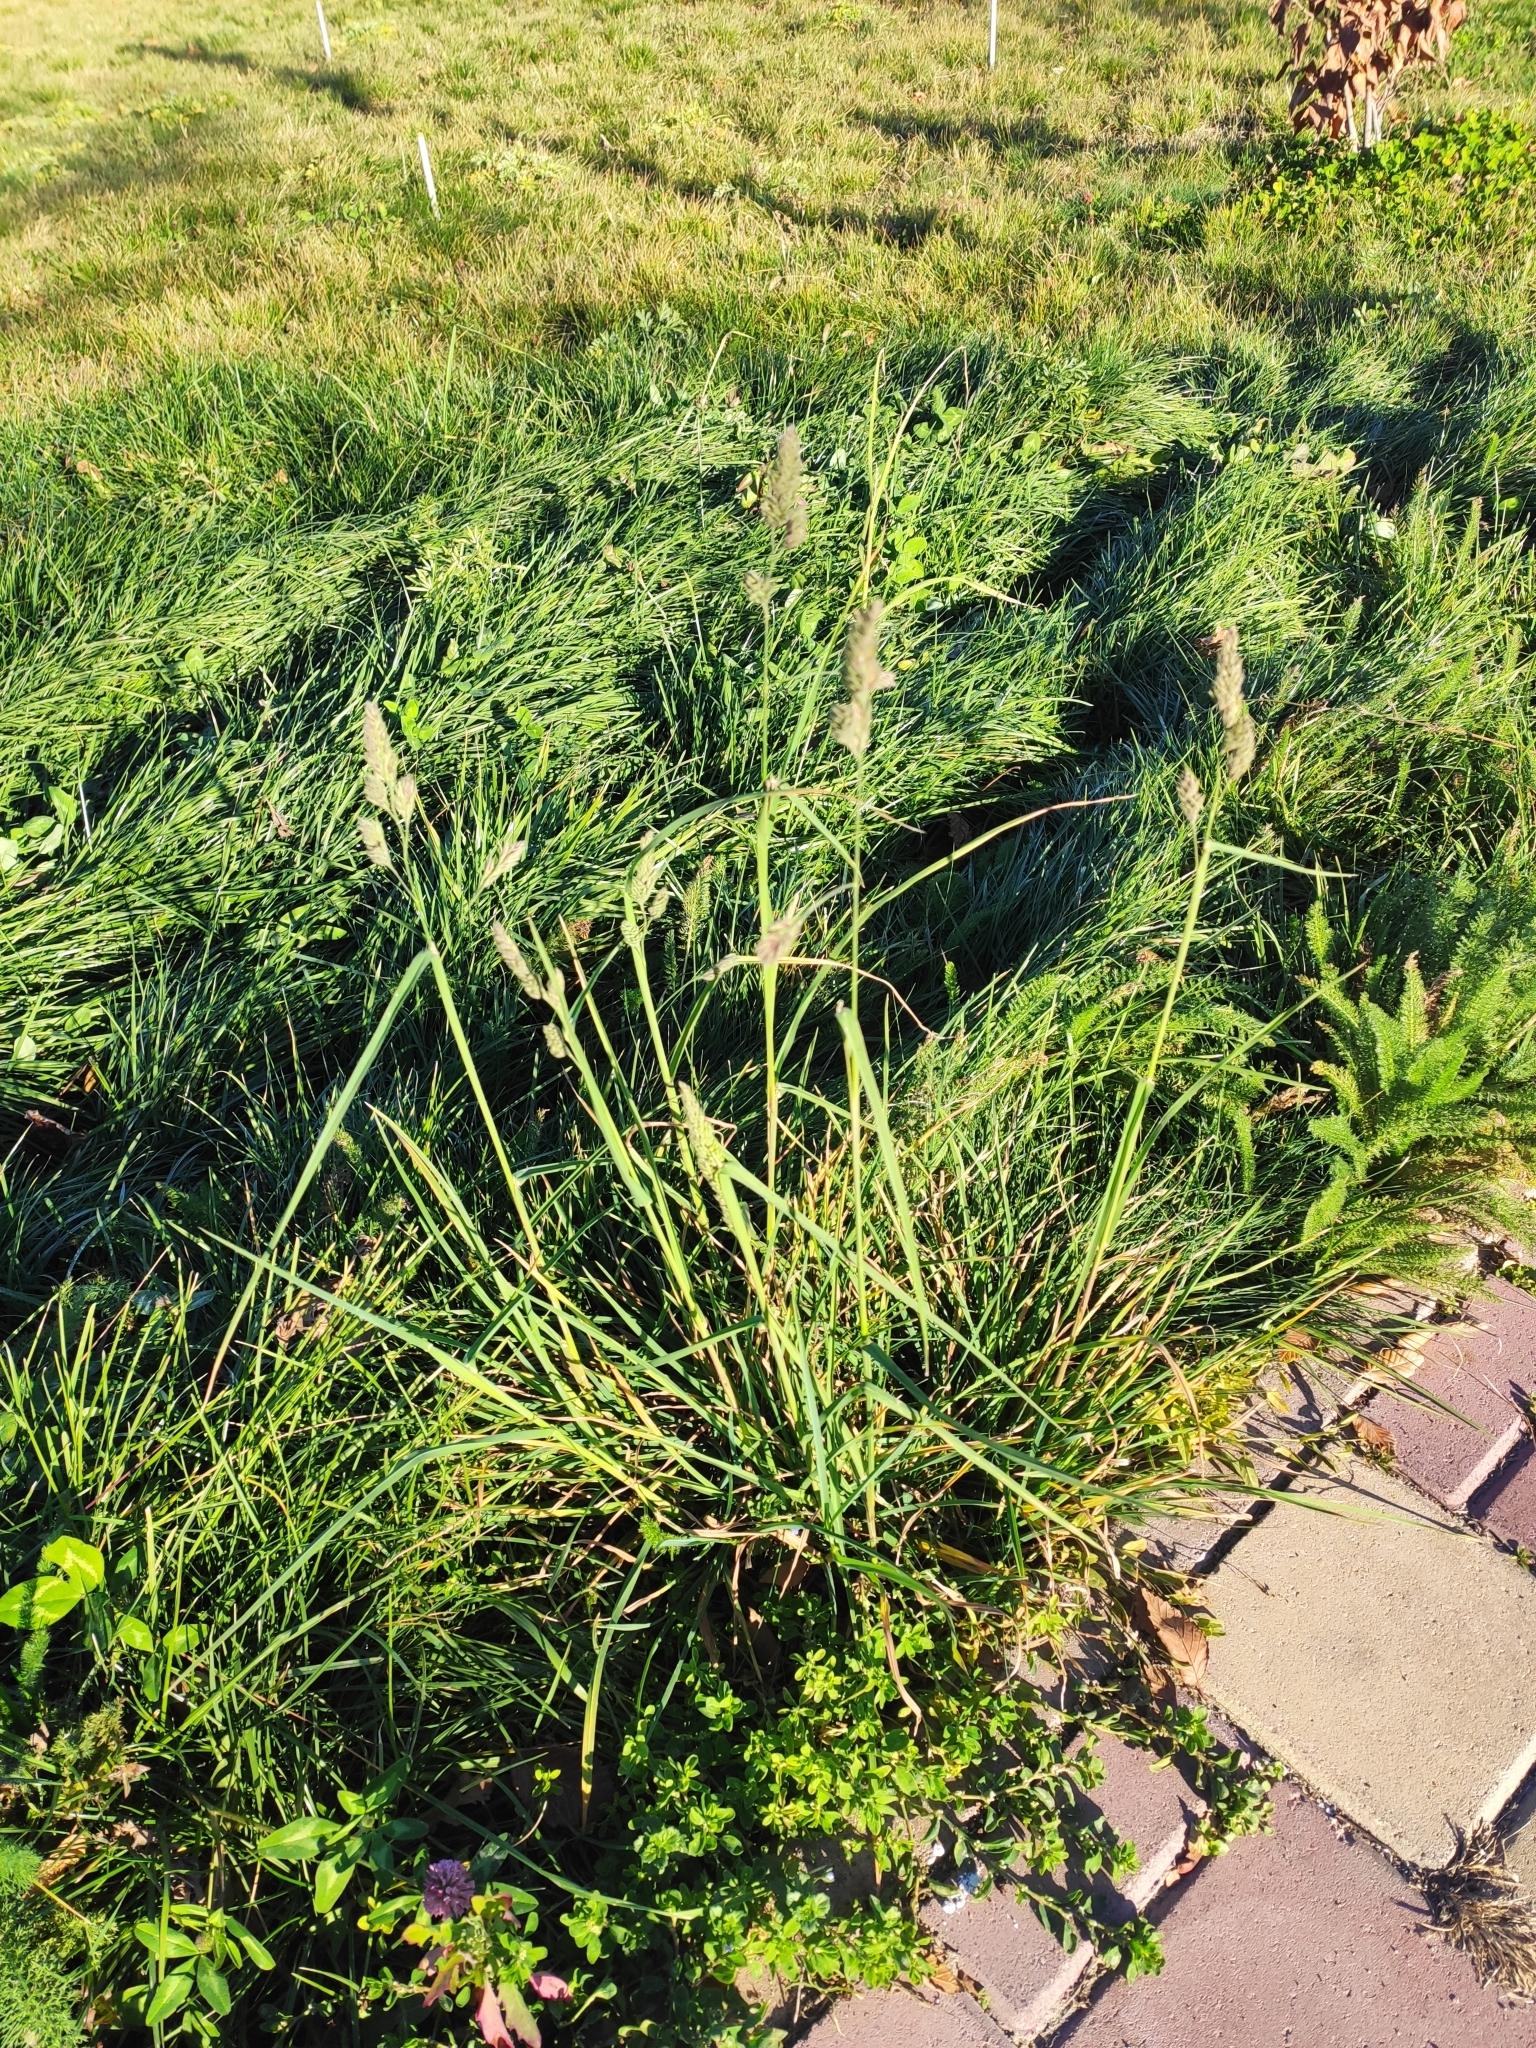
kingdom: Plantae
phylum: Tracheophyta
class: Liliopsida
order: Poales
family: Poaceae
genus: Dactylis
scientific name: Dactylis glomerata
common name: Orchardgrass
